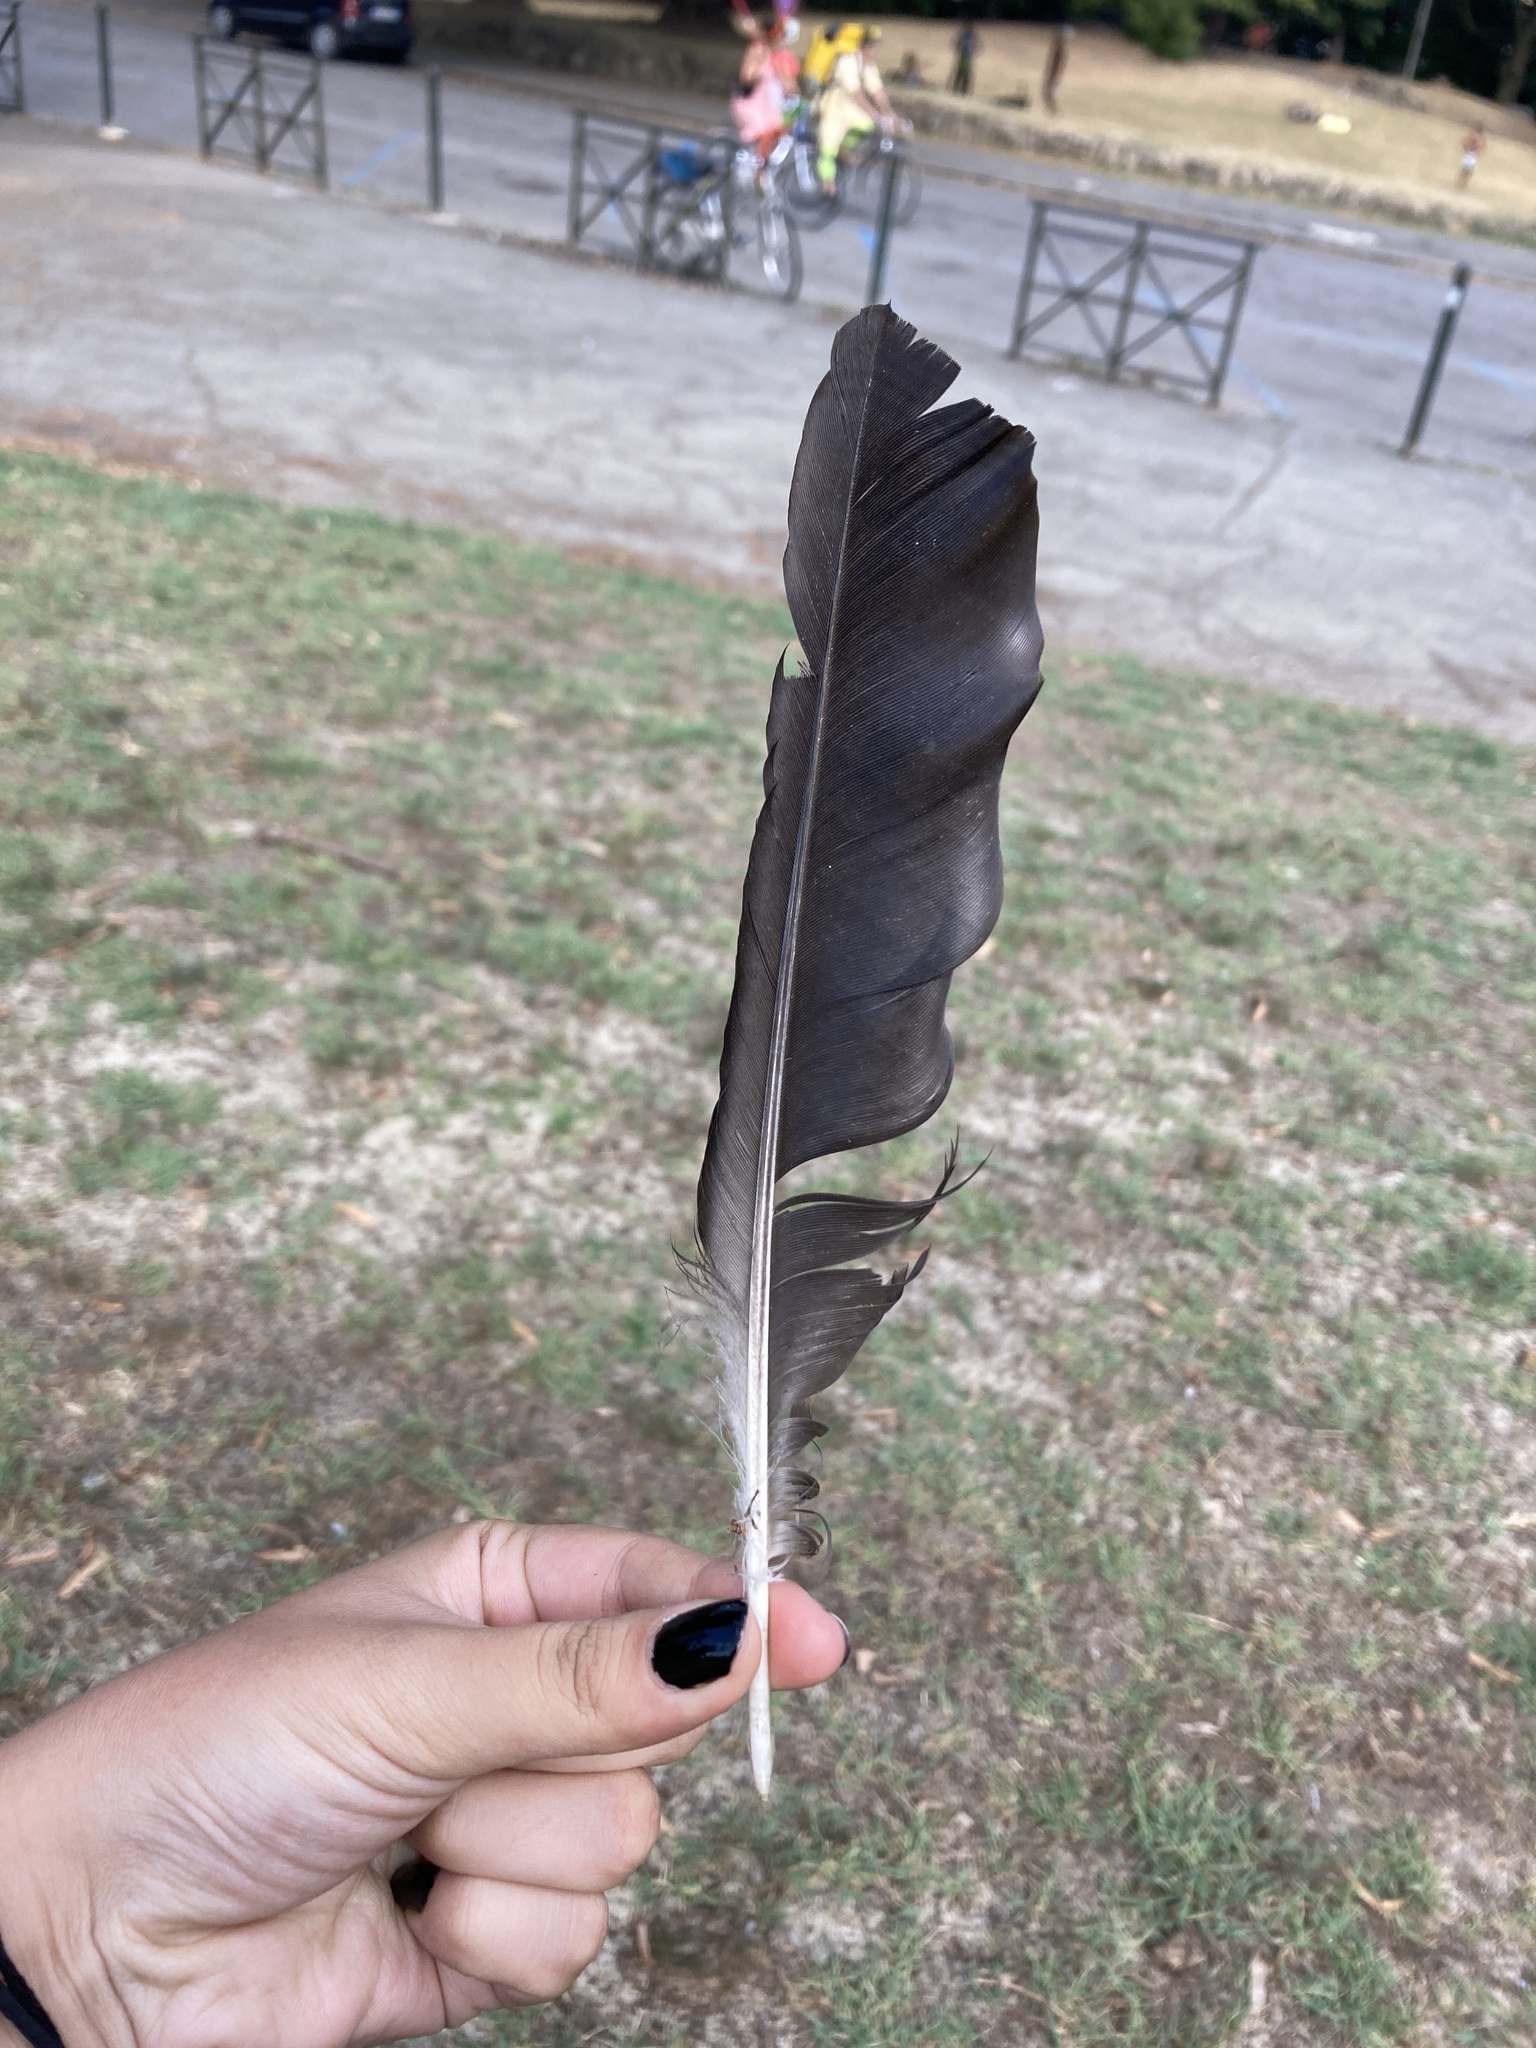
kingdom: Animalia
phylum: Chordata
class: Aves
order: Passeriformes
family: Corvidae
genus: Corvus
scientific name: Corvus cornix
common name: Hooded crow
